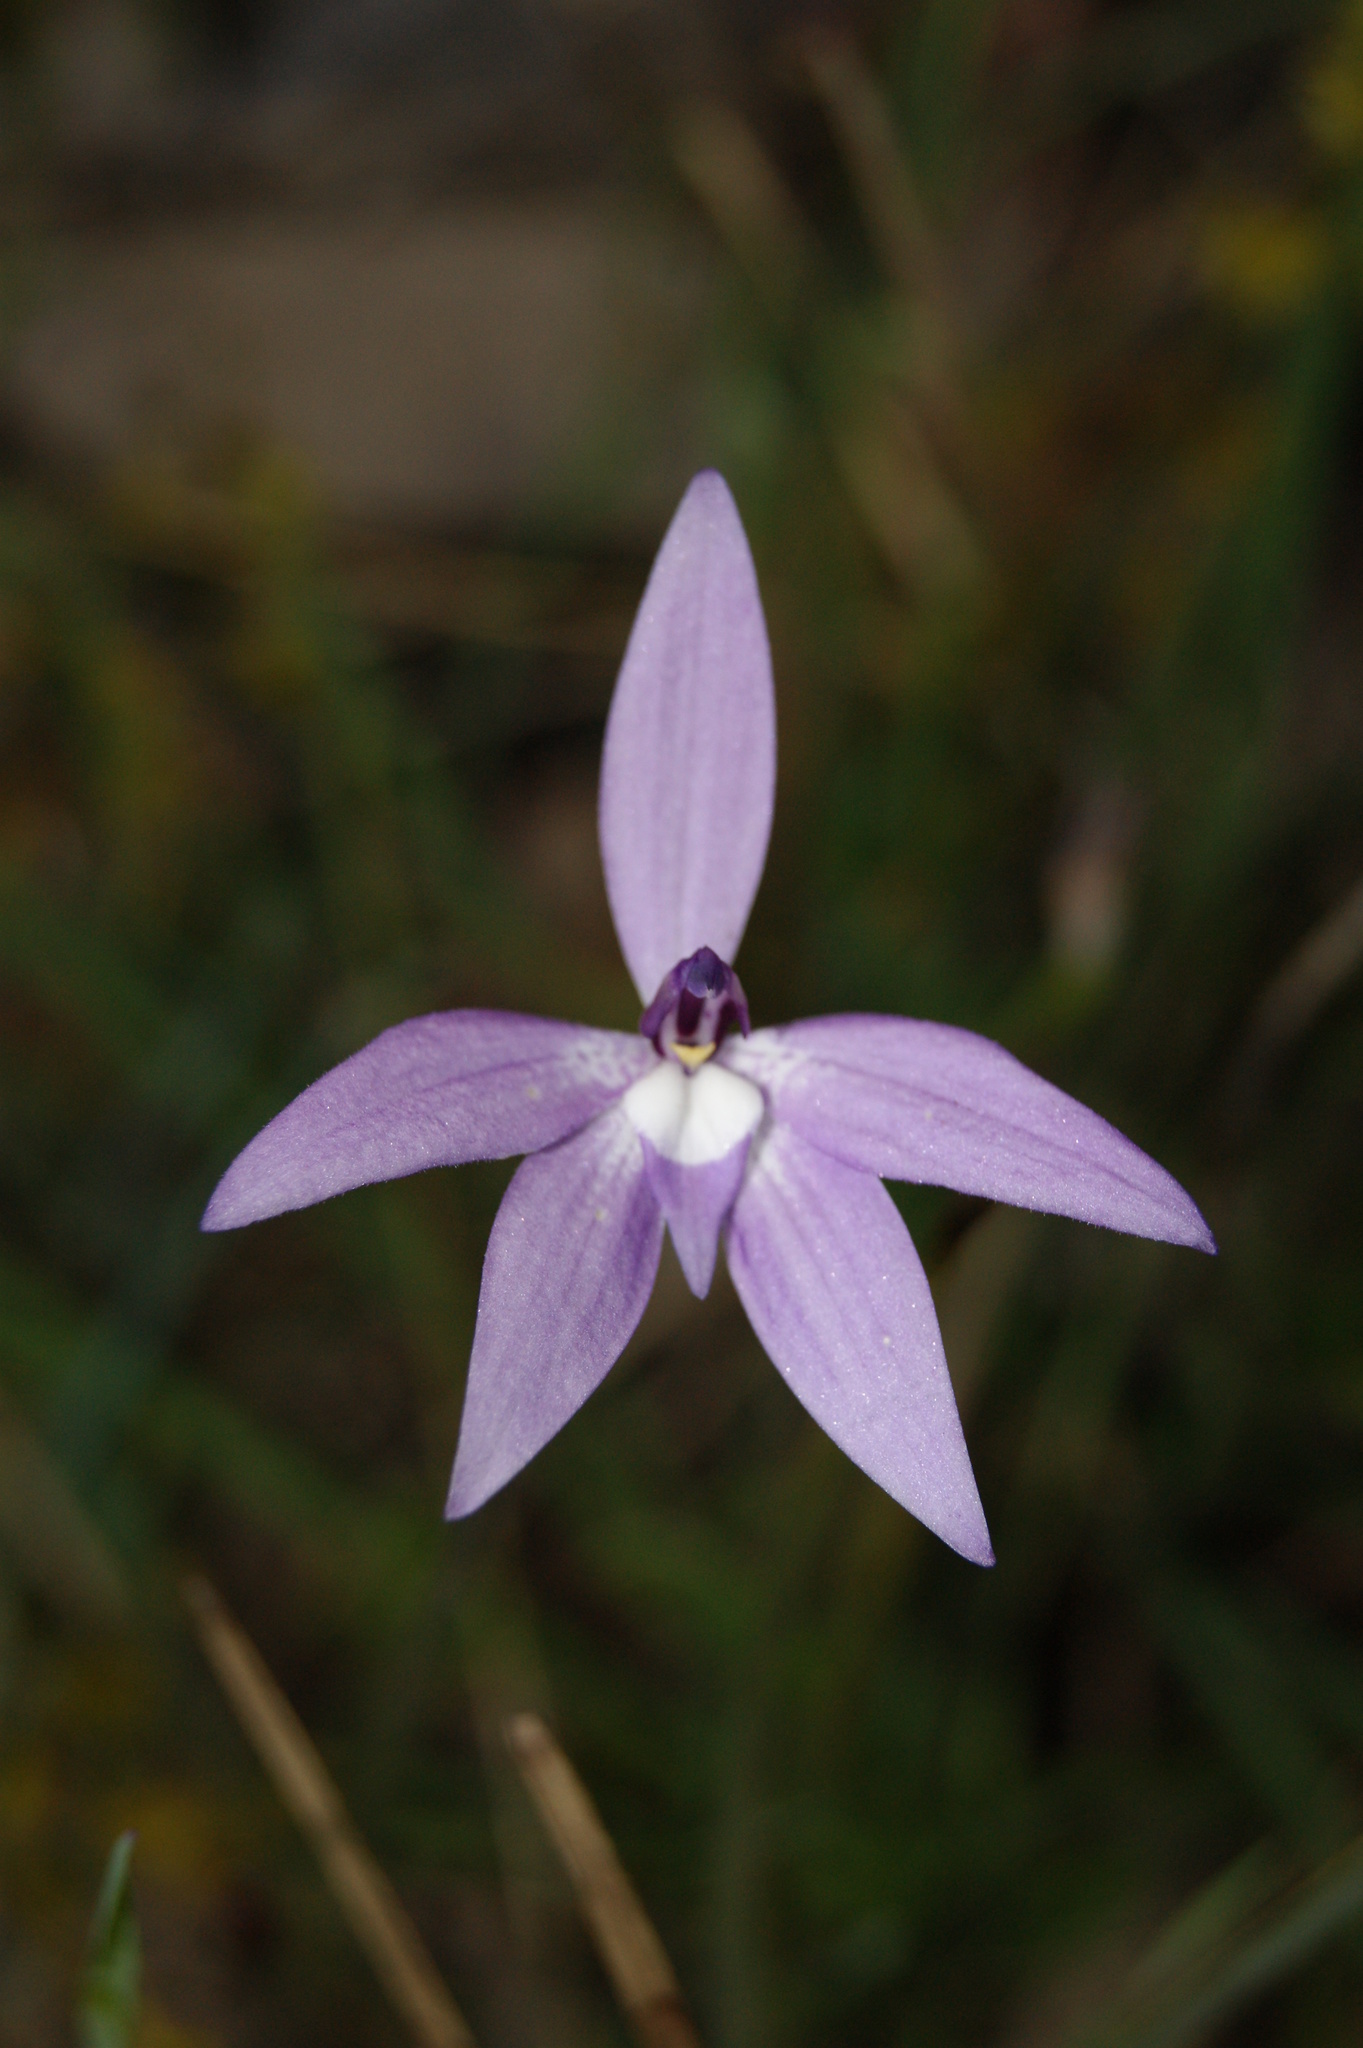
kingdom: Plantae
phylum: Tracheophyta
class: Liliopsida
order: Asparagales
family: Orchidaceae
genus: Caladenia
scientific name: Caladenia major
